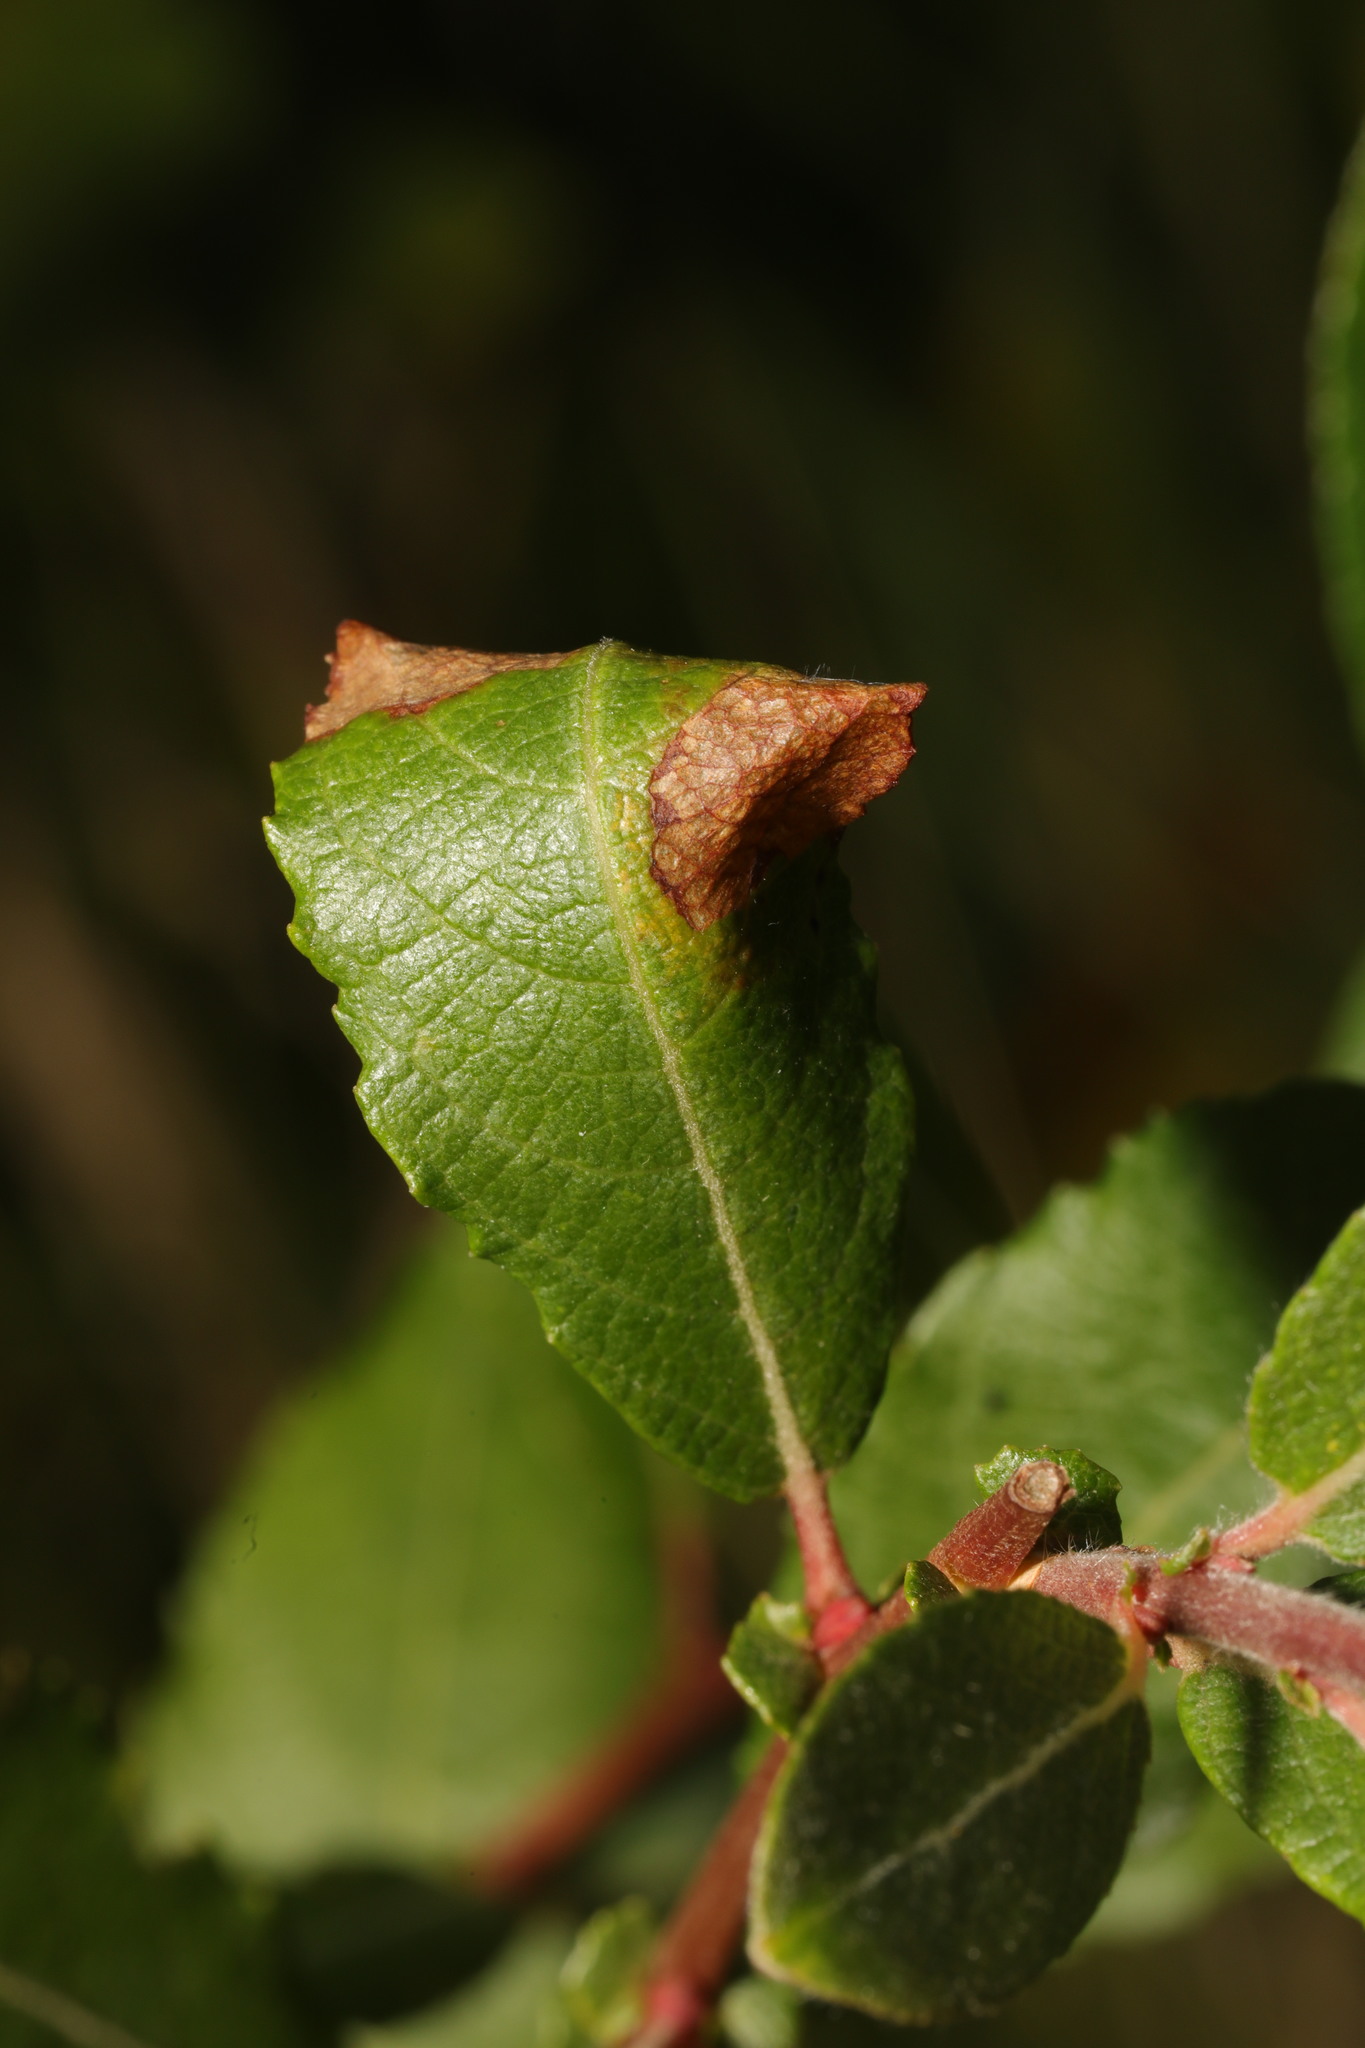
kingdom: Animalia
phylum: Arthropoda
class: Insecta
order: Lepidoptera
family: Gracillariidae
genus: Caloptilia
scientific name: Caloptilia stigmatella
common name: White-triangle slender
